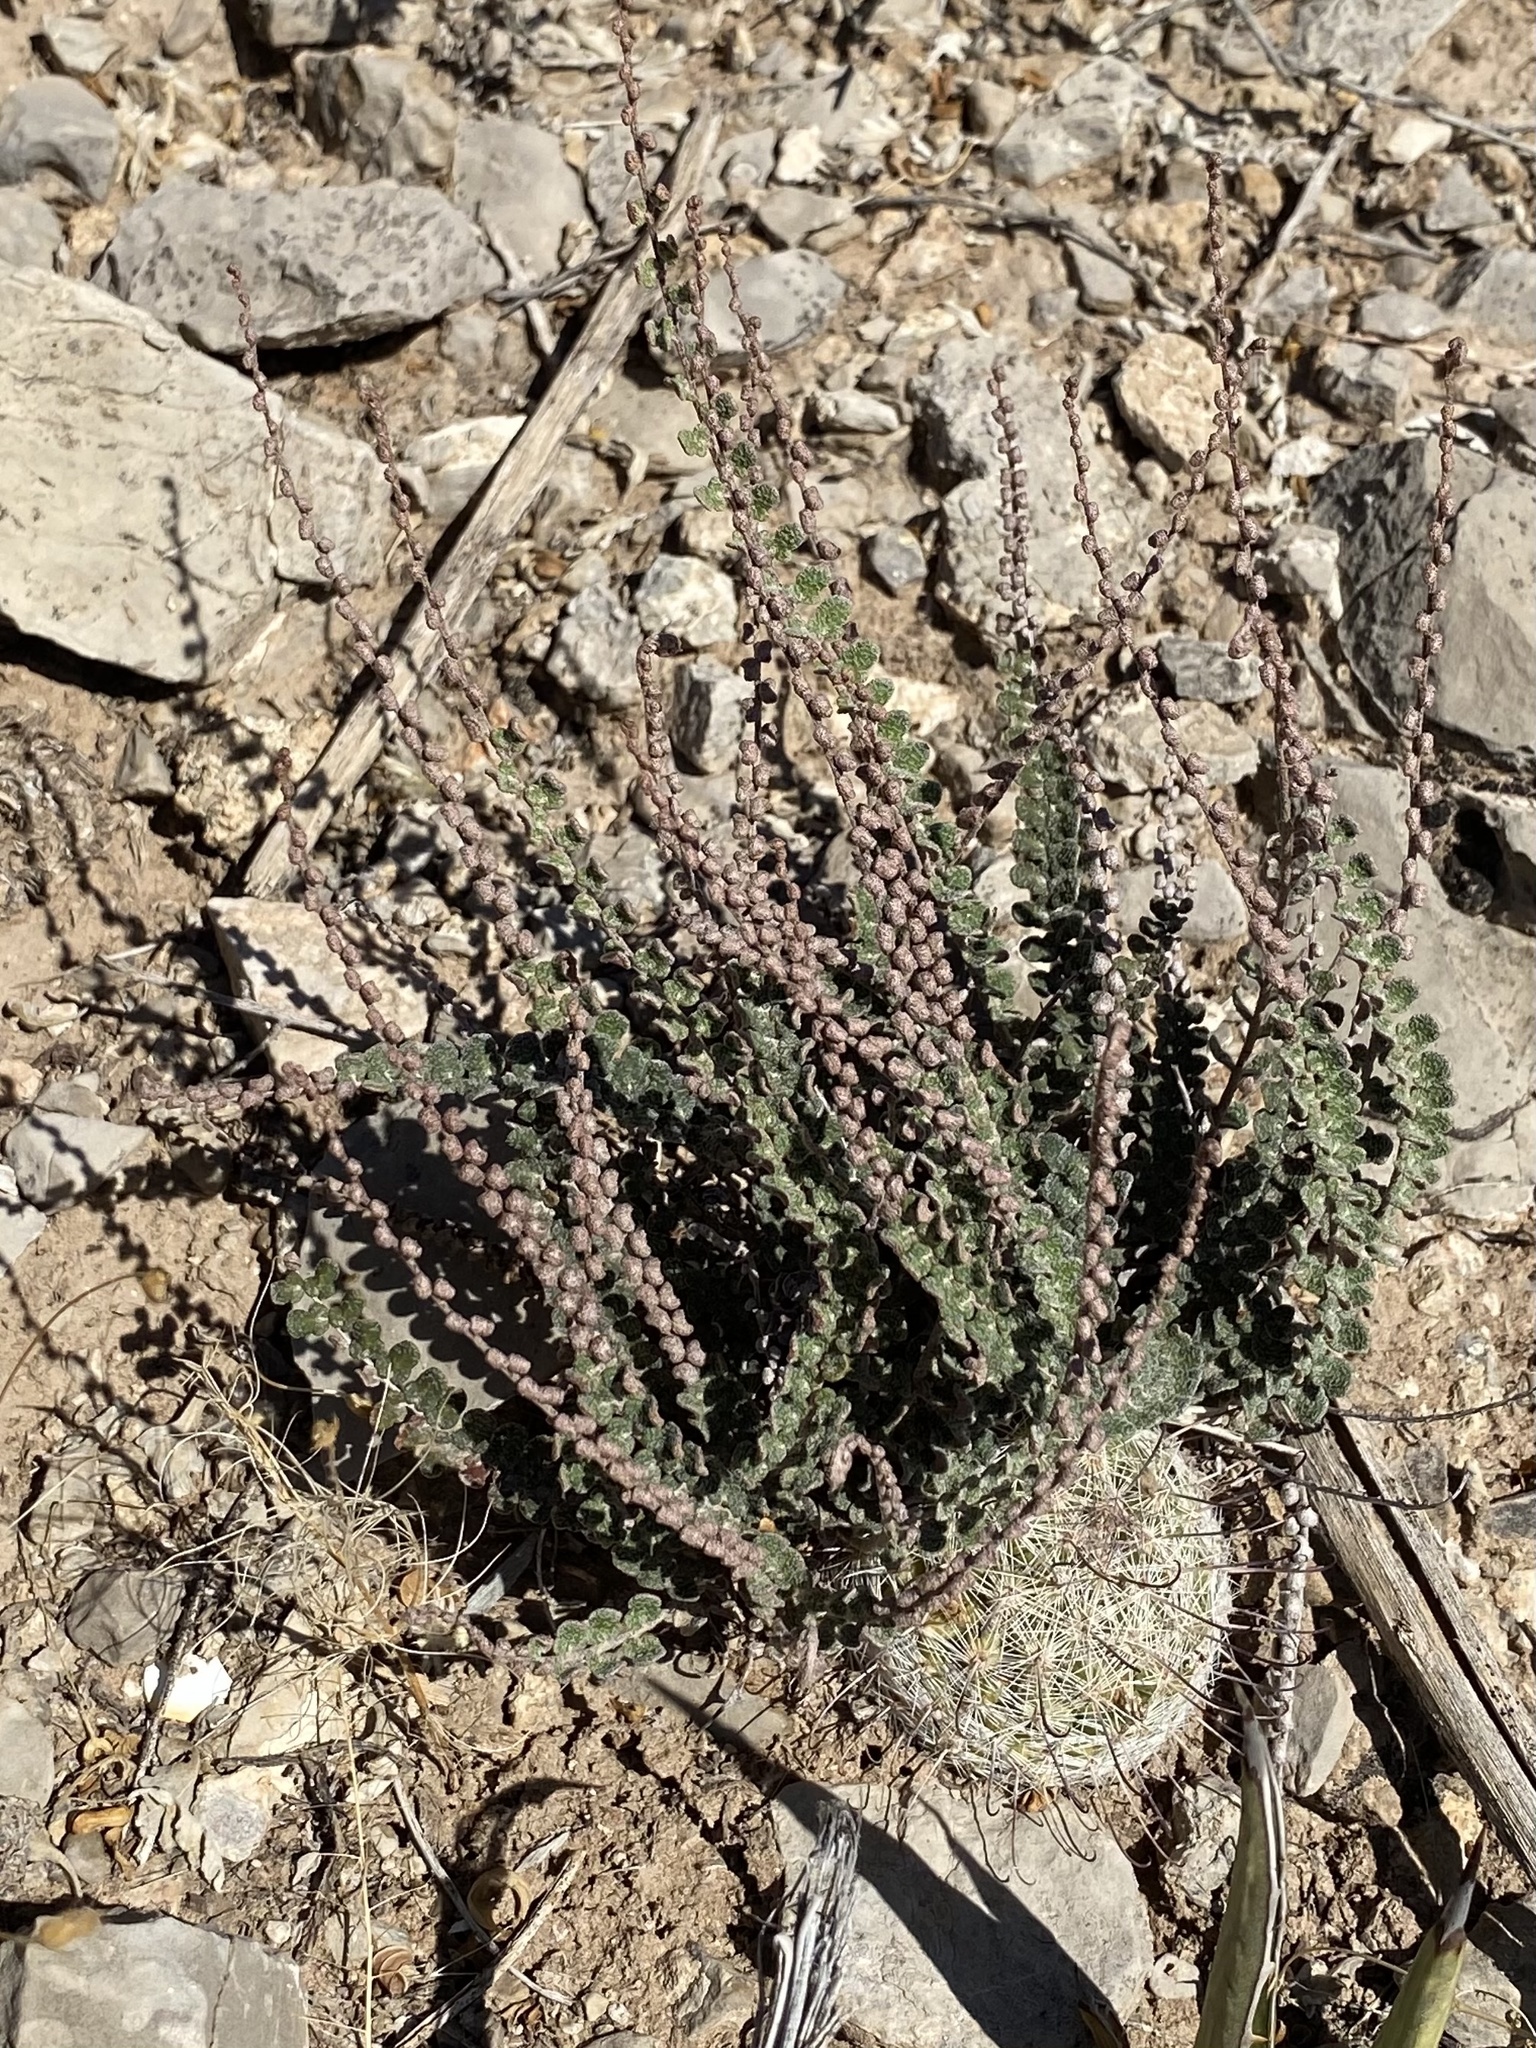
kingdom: Plantae
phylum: Tracheophyta
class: Polypodiopsida
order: Polypodiales
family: Pteridaceae
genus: Astrolepis
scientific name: Astrolepis cochisensis
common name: Scaly cloak fern
